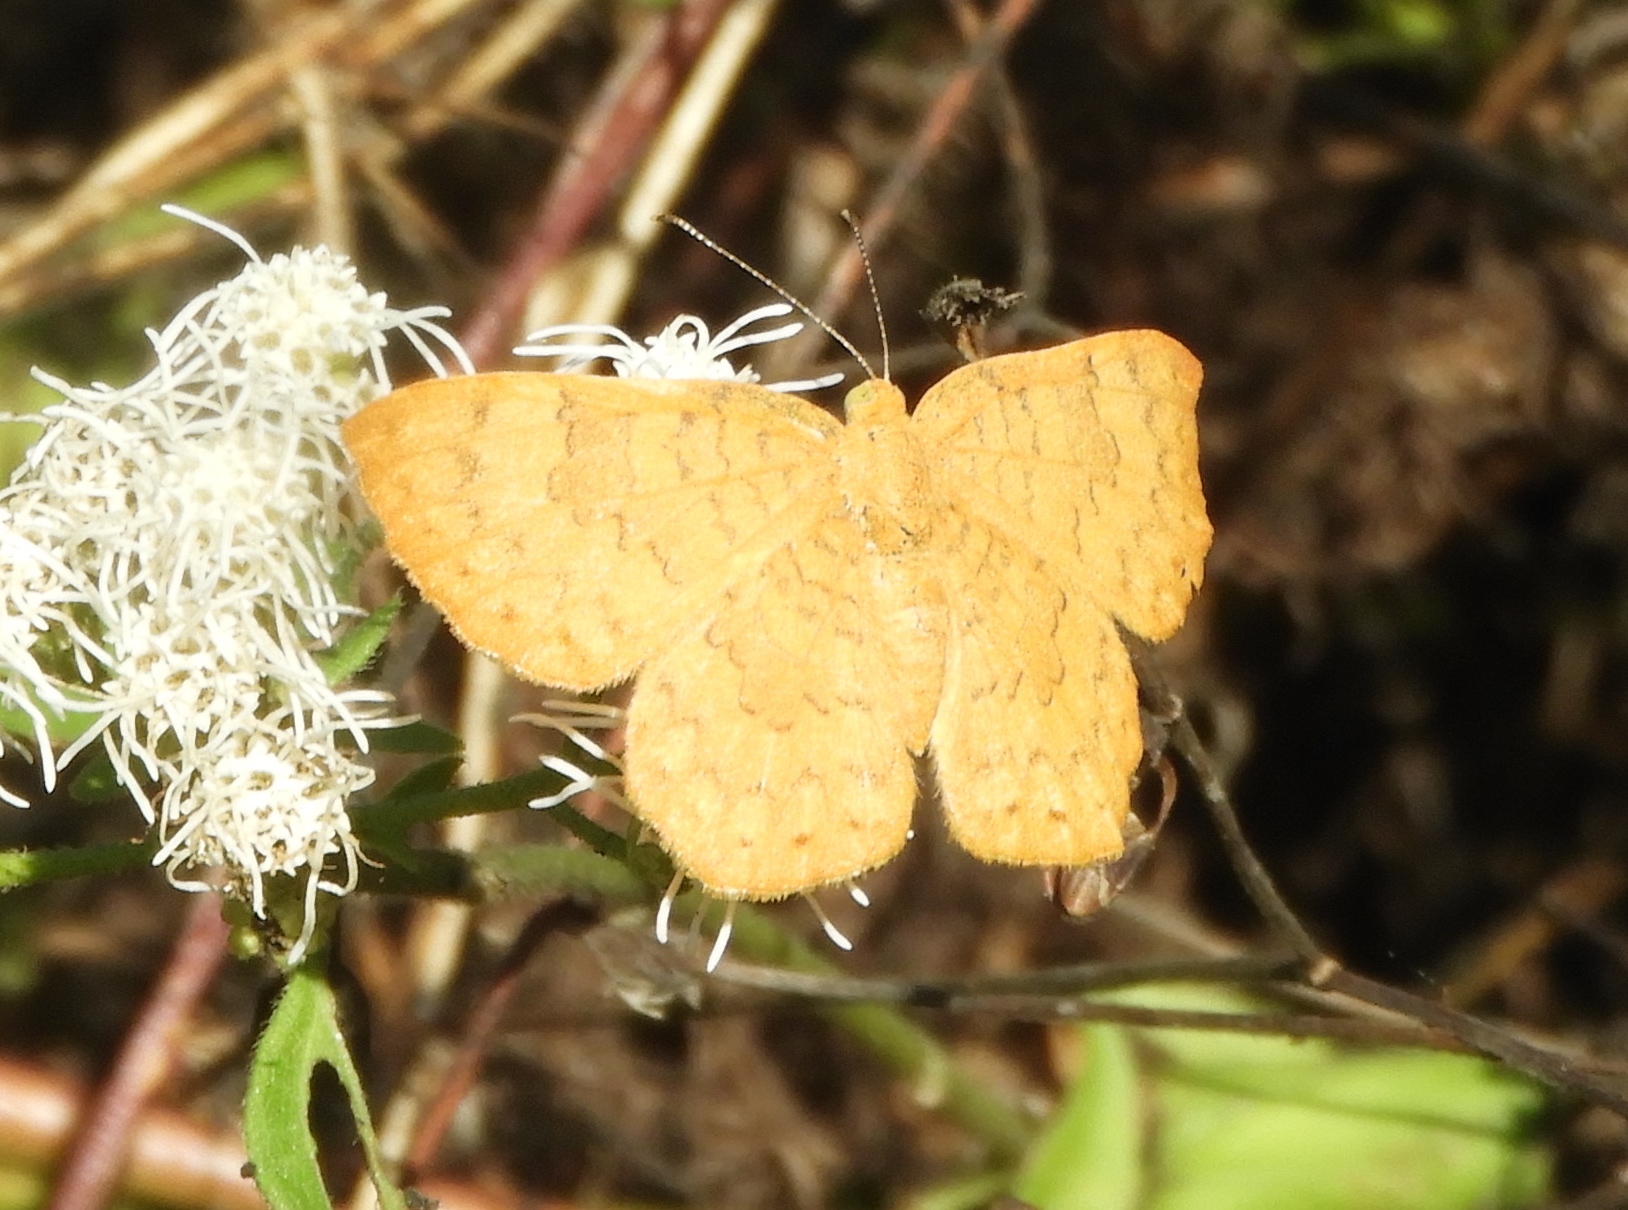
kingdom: Animalia
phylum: Arthropoda
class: Insecta
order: Lepidoptera
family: Lycaenidae
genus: Emesis
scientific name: Emesis vulpina
